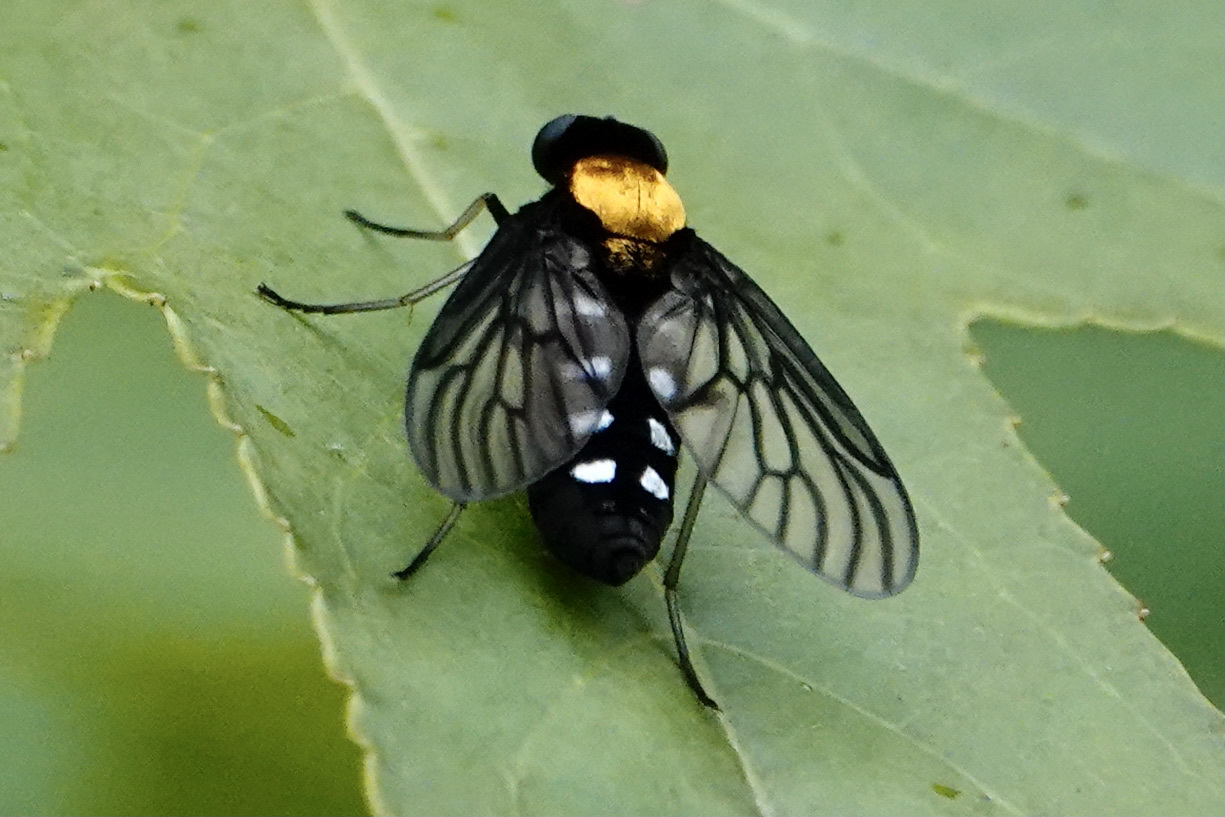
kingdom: Animalia
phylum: Arthropoda
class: Insecta
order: Diptera
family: Rhagionidae
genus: Chrysopilus
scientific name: Chrysopilus thoracicus
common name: Golden-backed snipe fly
